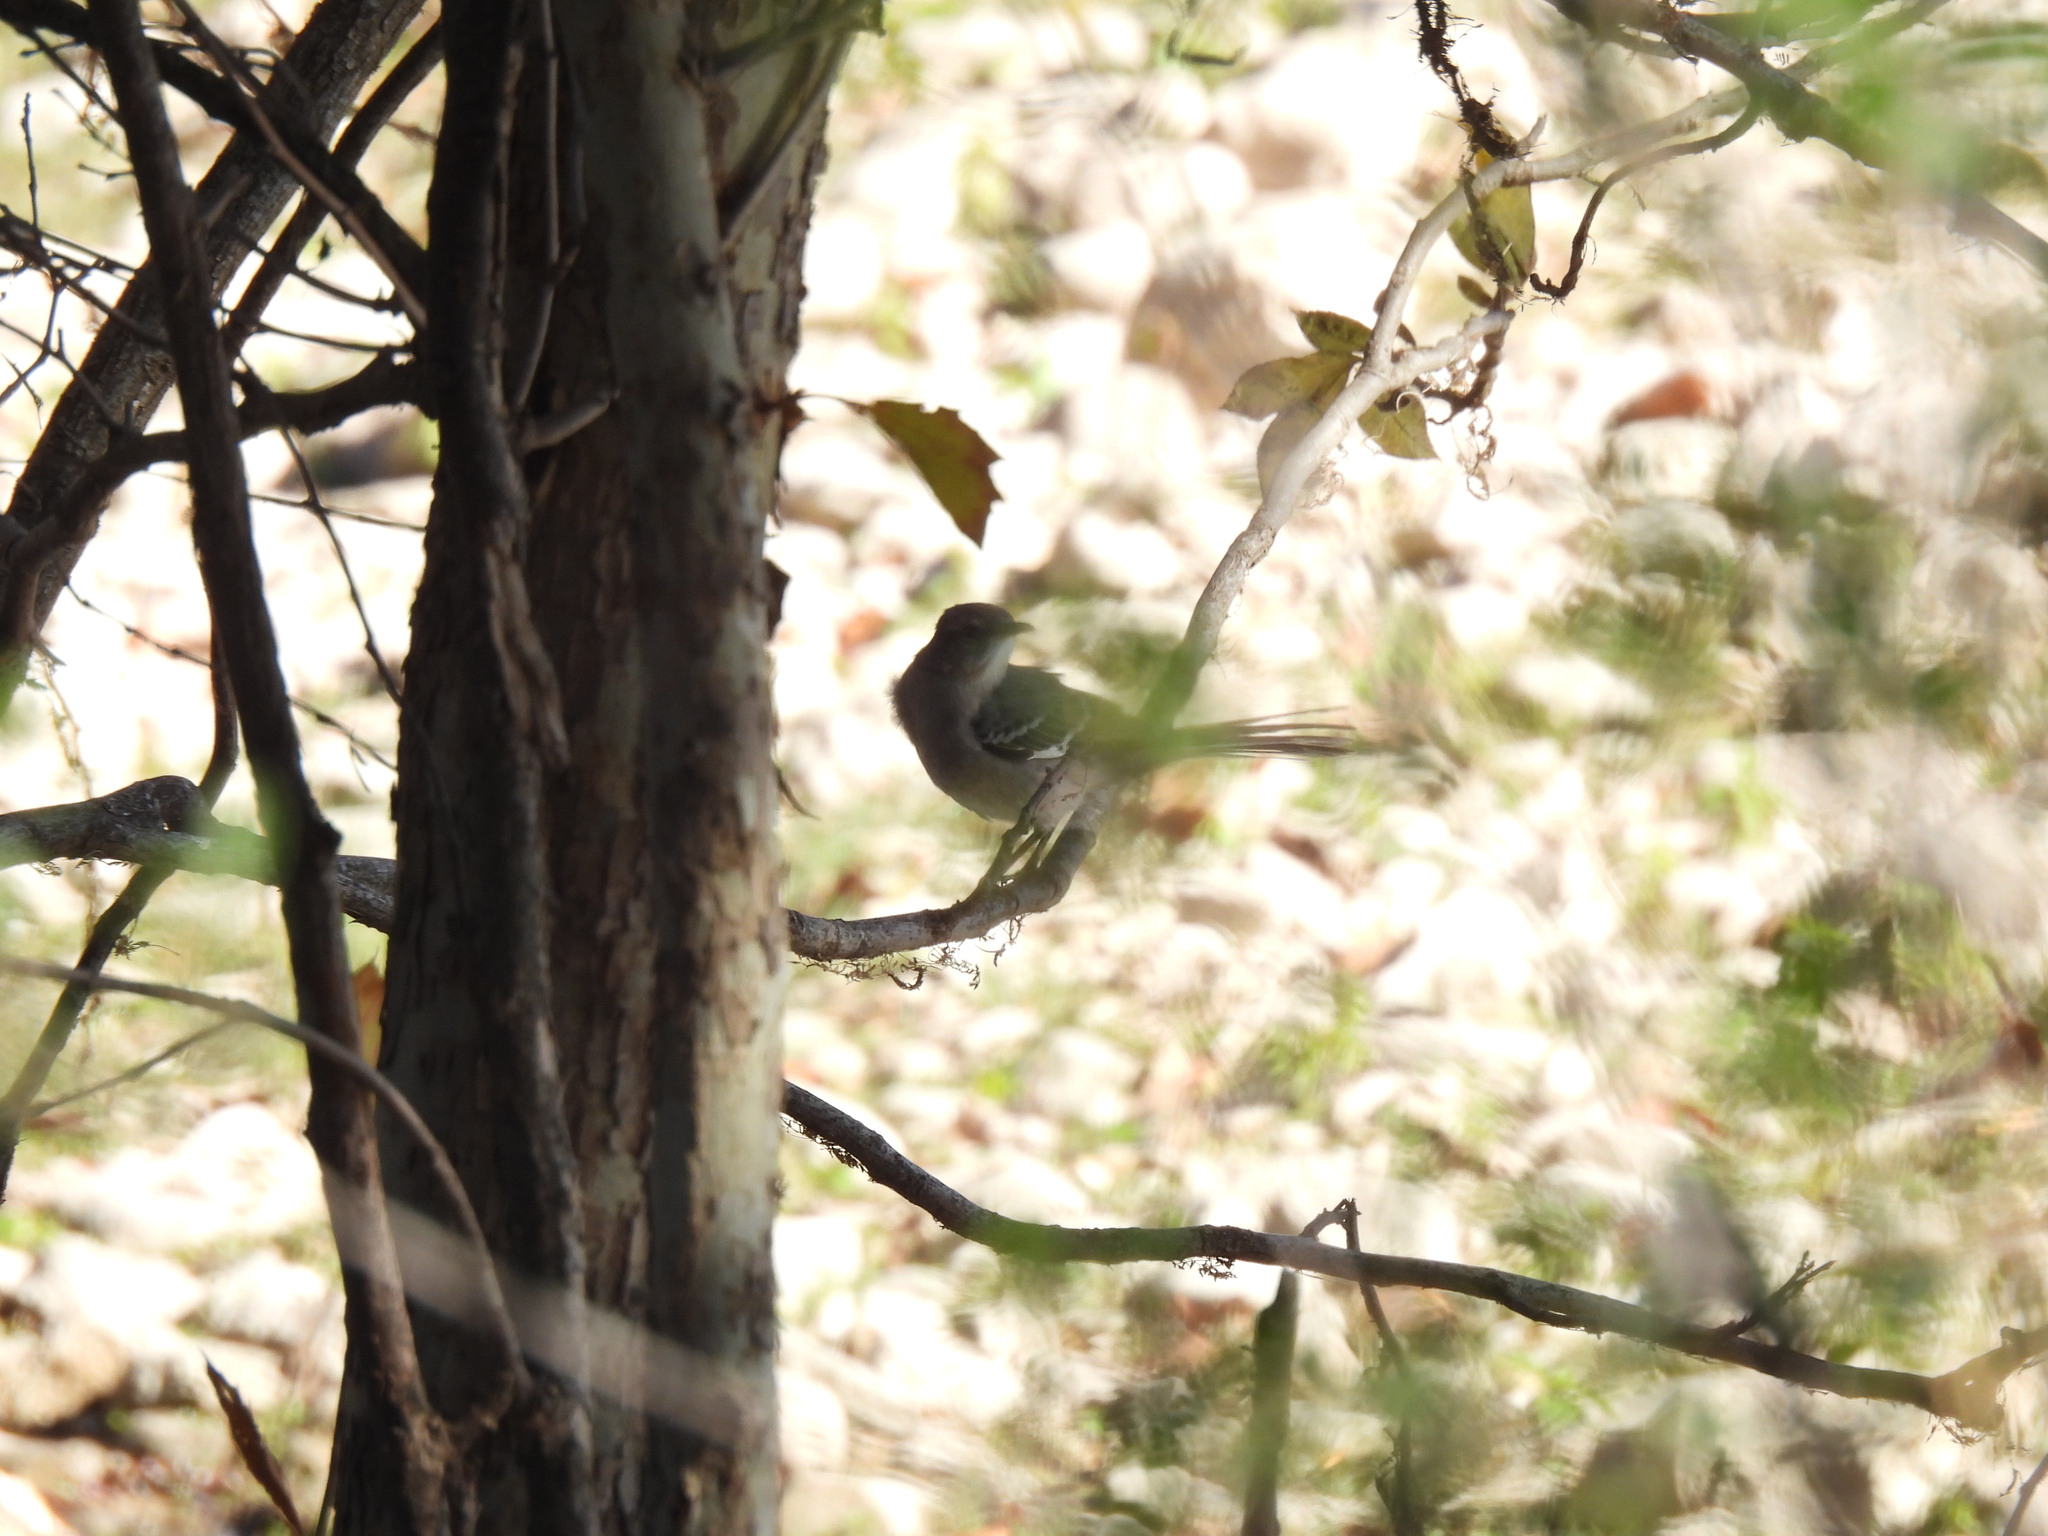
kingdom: Animalia
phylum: Chordata
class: Aves
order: Passeriformes
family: Mimidae
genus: Mimus
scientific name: Mimus polyglottos
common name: Northern mockingbird
